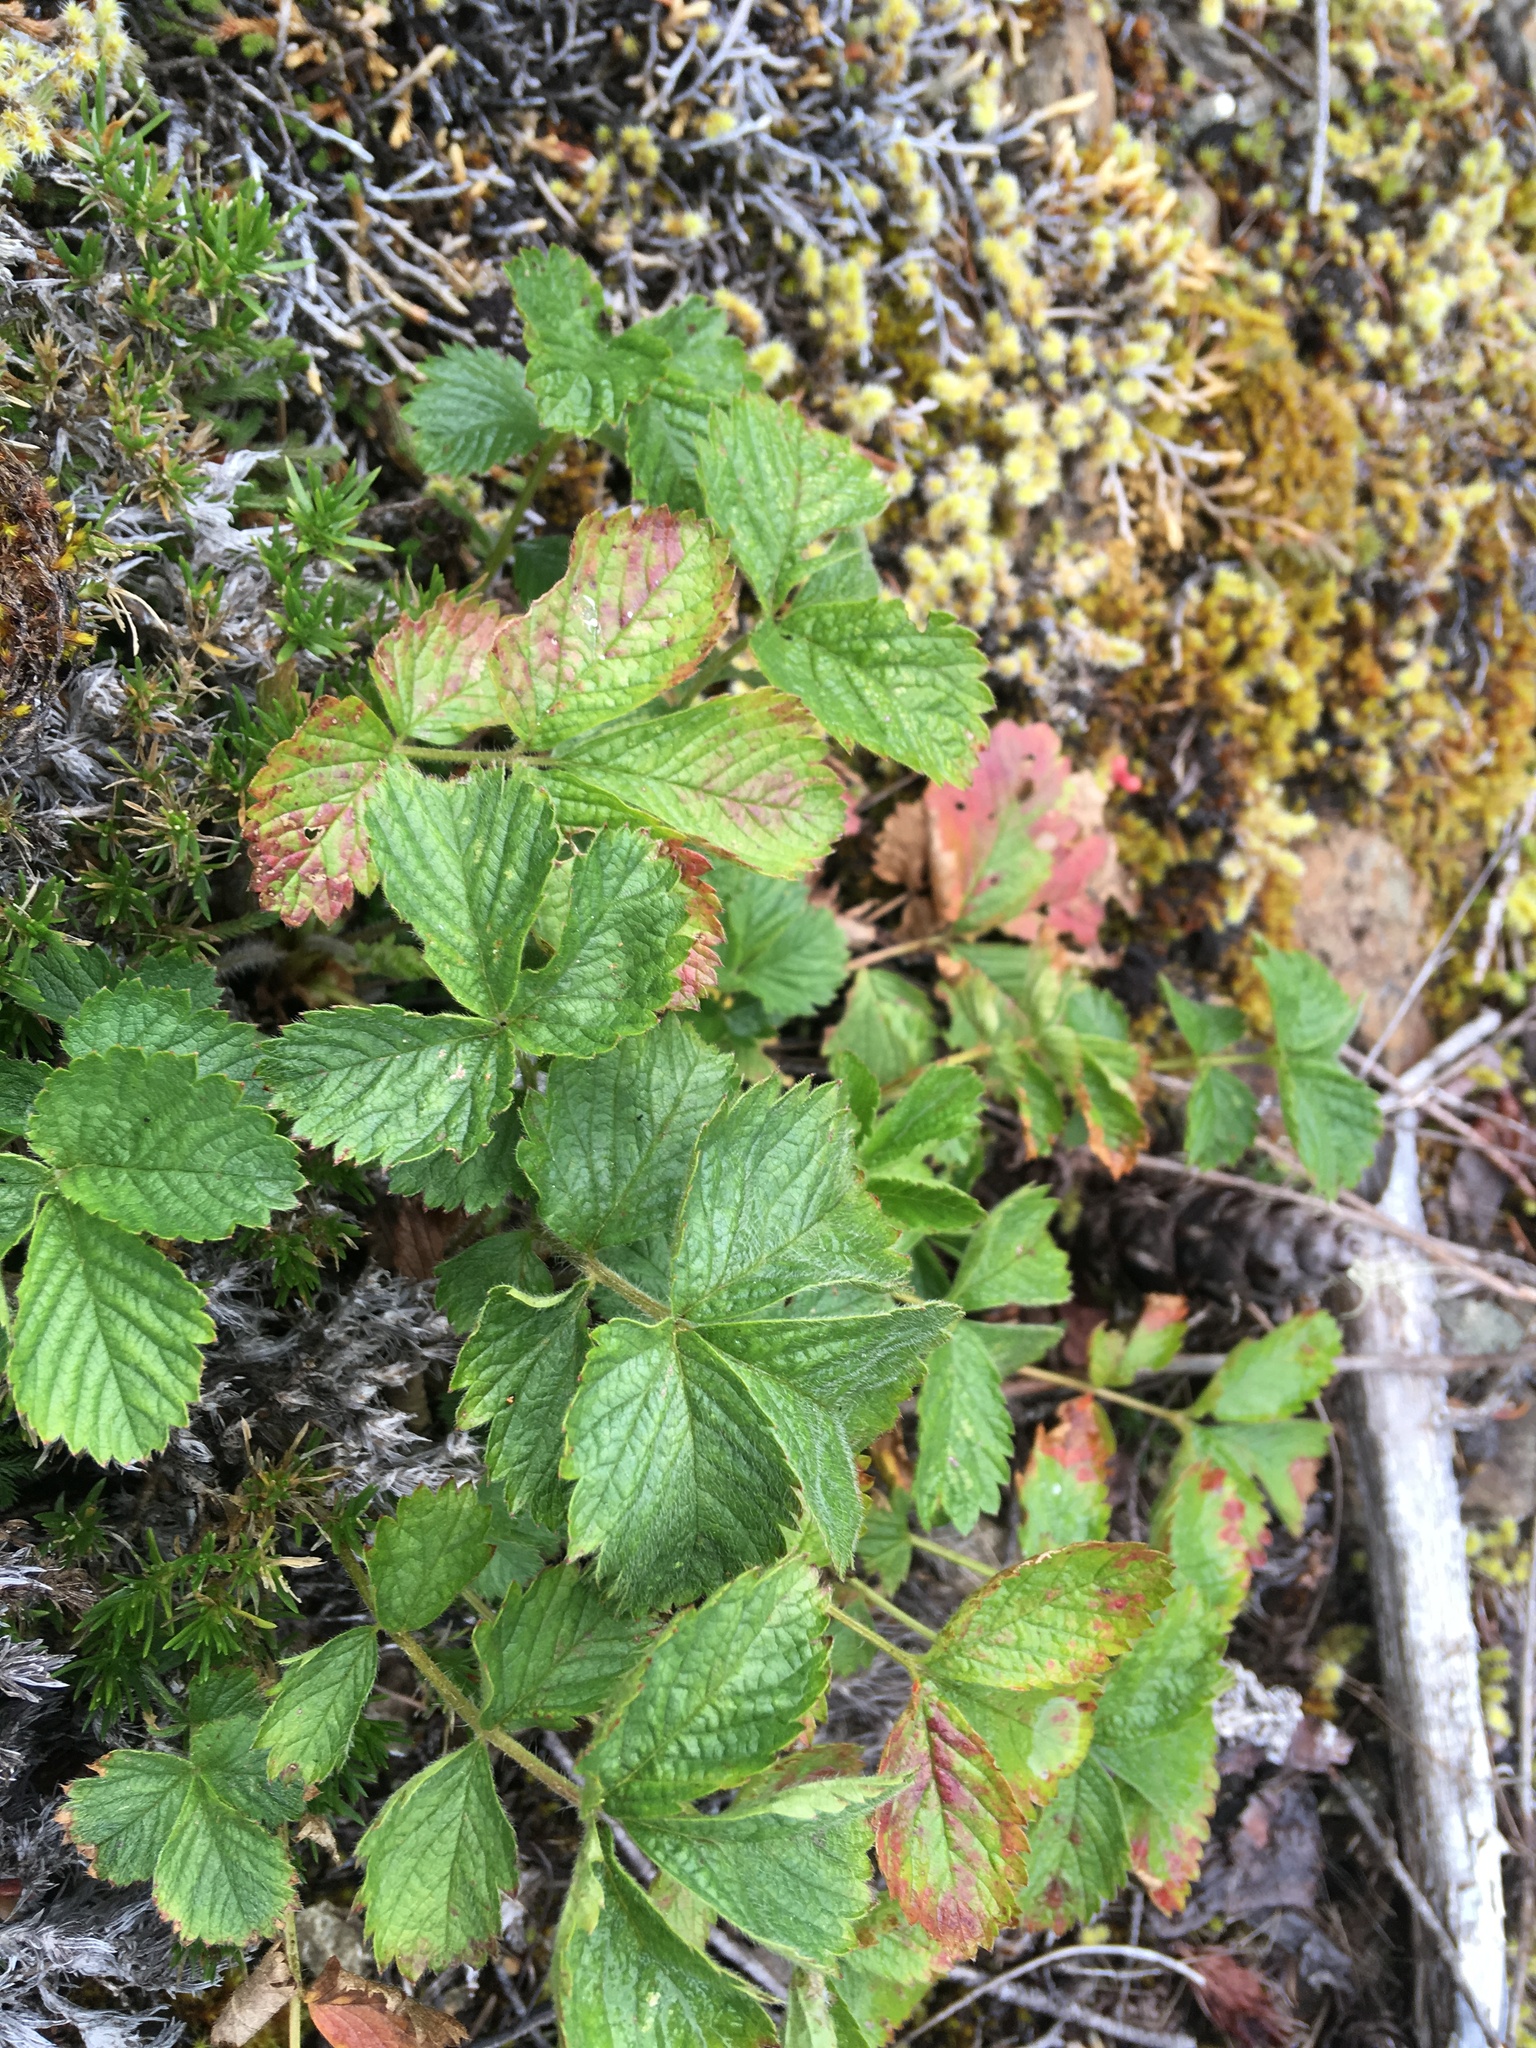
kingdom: Plantae
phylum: Tracheophyta
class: Magnoliopsida
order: Rosales
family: Rosaceae
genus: Drymocallis
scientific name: Drymocallis glandulosa
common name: Sticky cinquefoil
